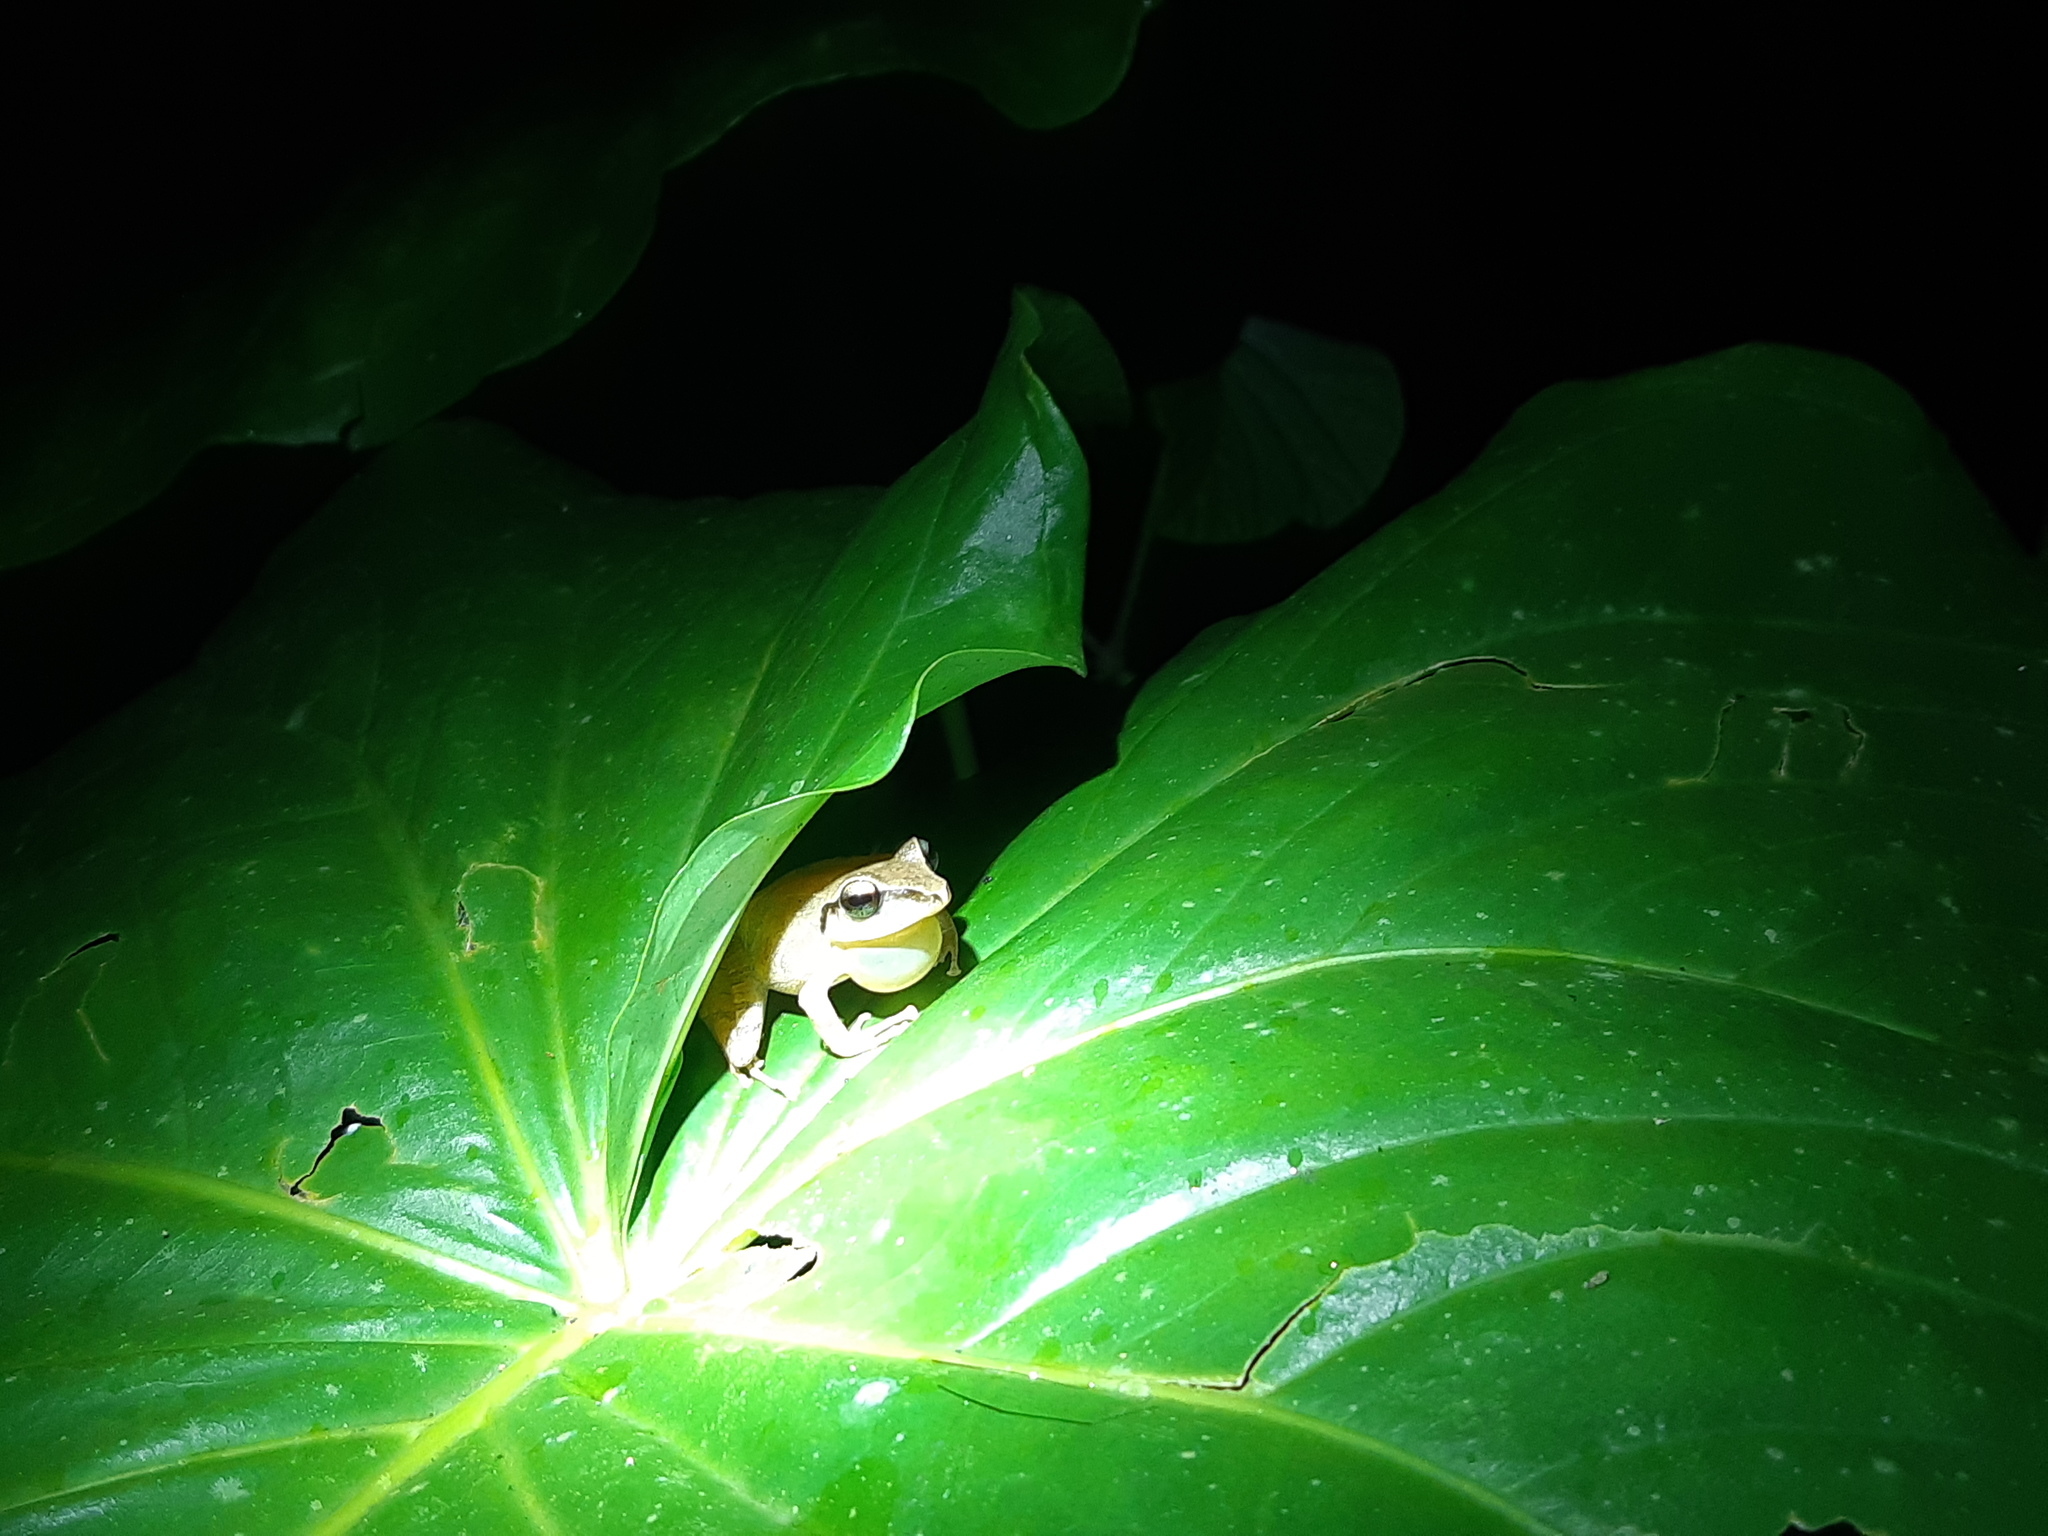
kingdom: Animalia
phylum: Chordata
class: Amphibia
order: Anura
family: Craugastoridae
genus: Pristimantis
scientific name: Pristimantis achatinus
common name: Cachabi robber frog
